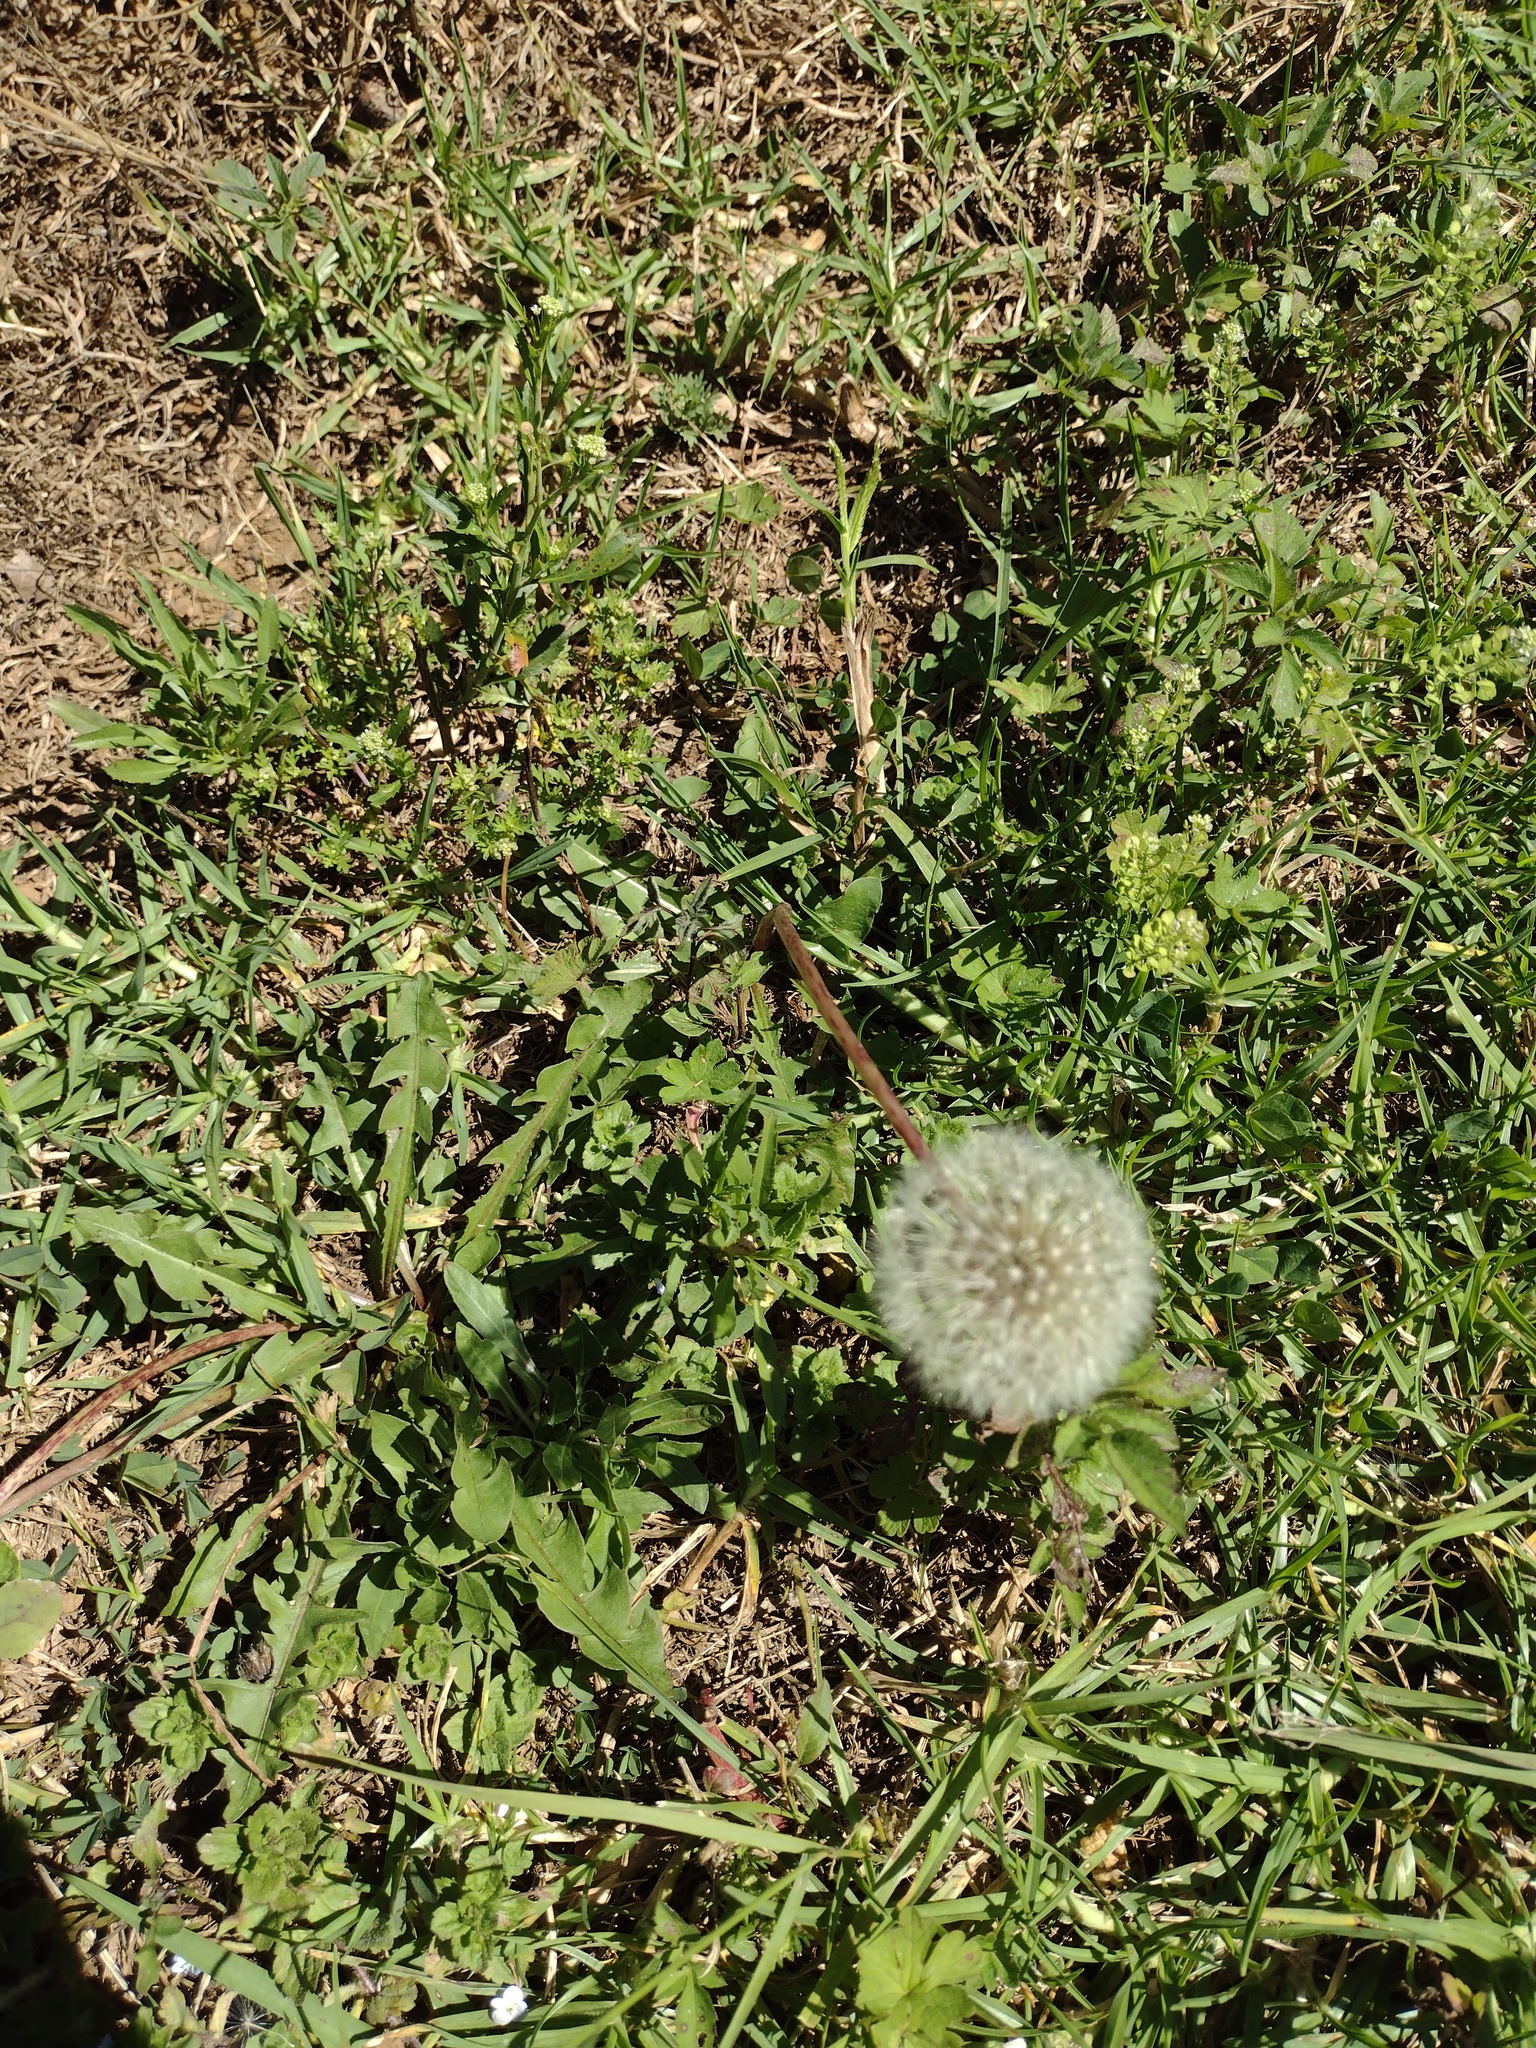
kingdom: Plantae
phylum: Tracheophyta
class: Magnoliopsida
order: Asterales
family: Asteraceae
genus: Taraxacum
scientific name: Taraxacum officinale
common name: Common dandelion
